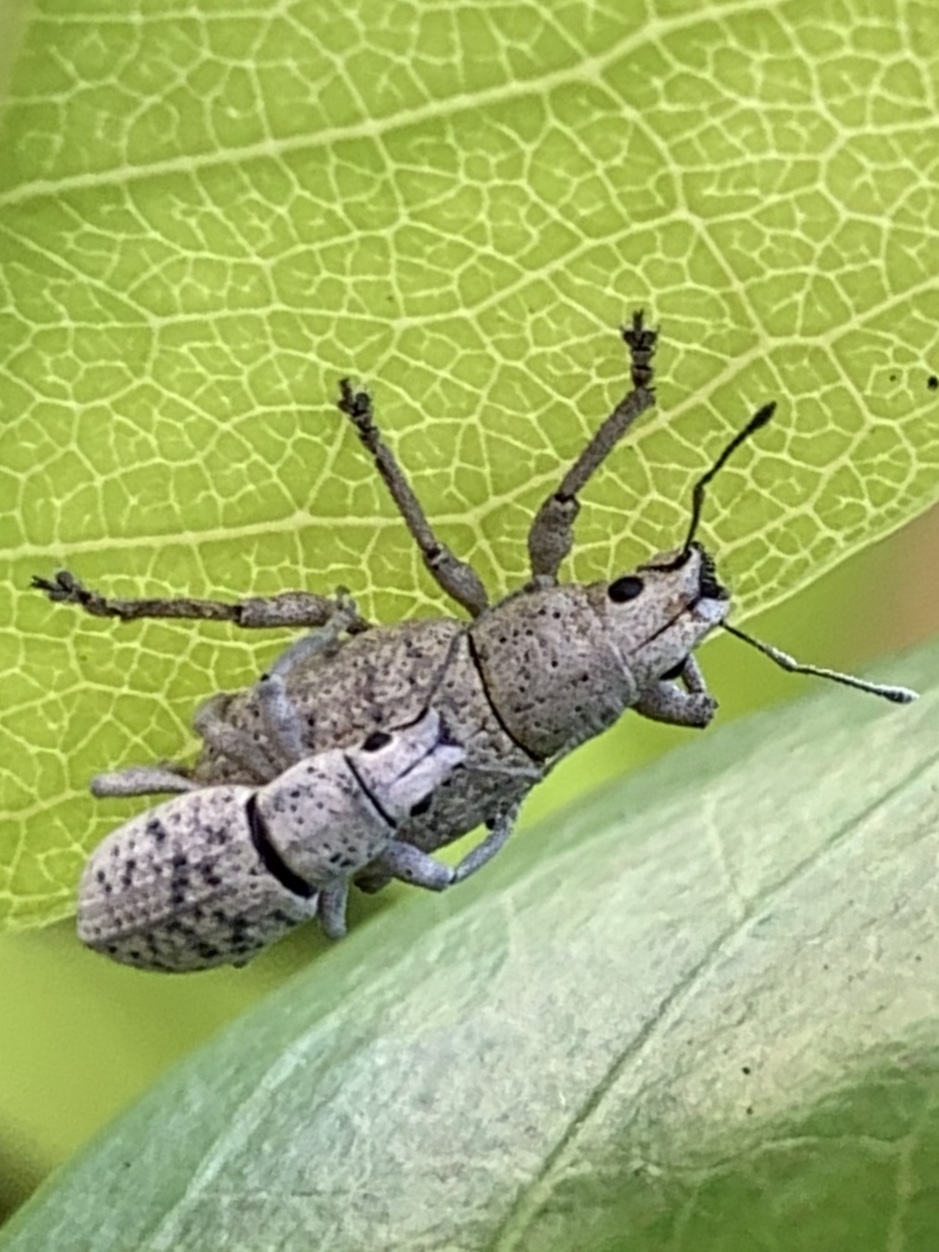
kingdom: Animalia
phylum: Arthropoda
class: Insecta
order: Coleoptera
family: Curculionidae
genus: Artipus
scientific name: Artipus floridanus
